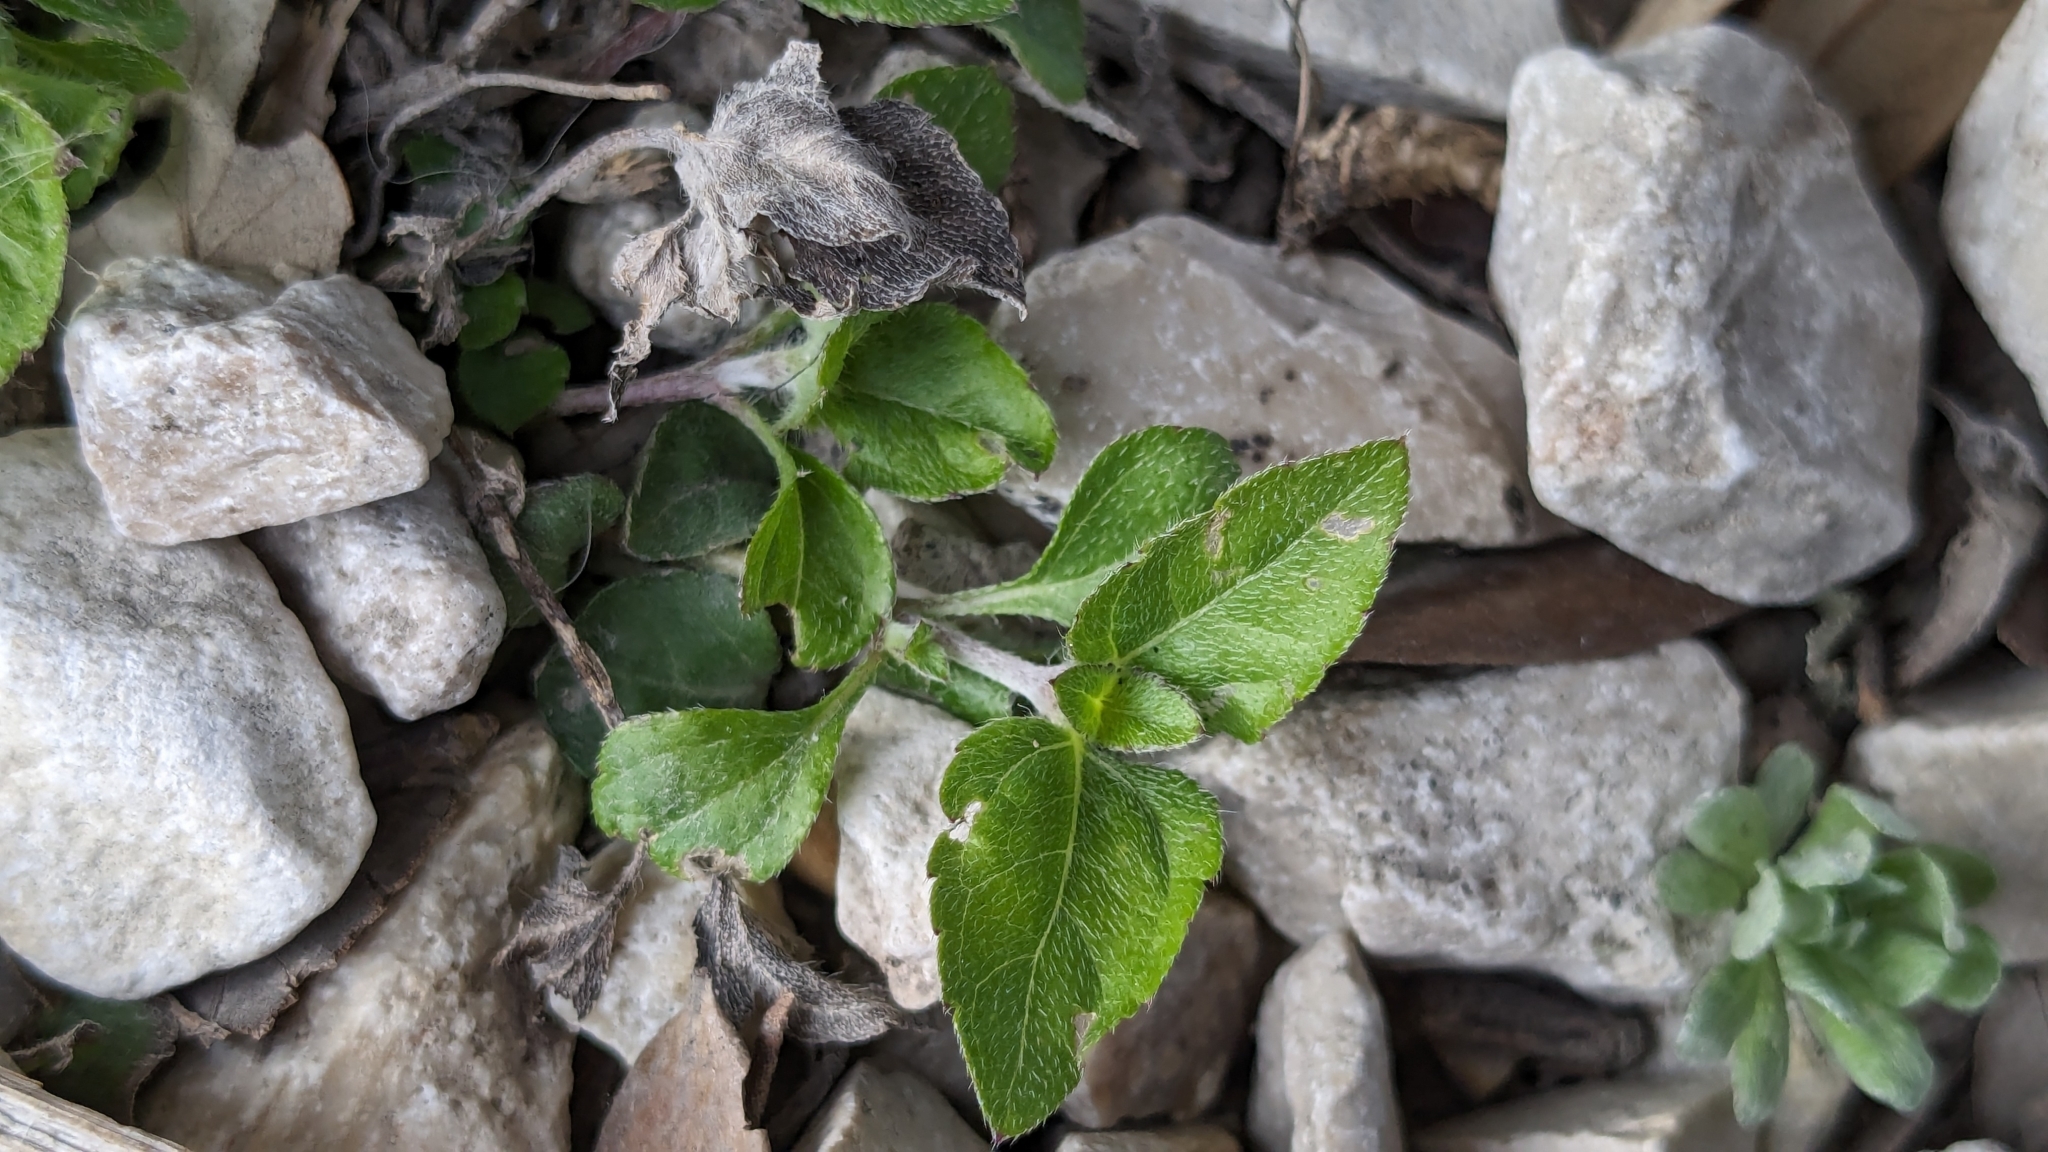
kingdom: Plantae
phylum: Tracheophyta
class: Magnoliopsida
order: Asterales
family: Asteraceae
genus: Calyptocarpus
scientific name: Calyptocarpus vialis
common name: Straggler daisy
